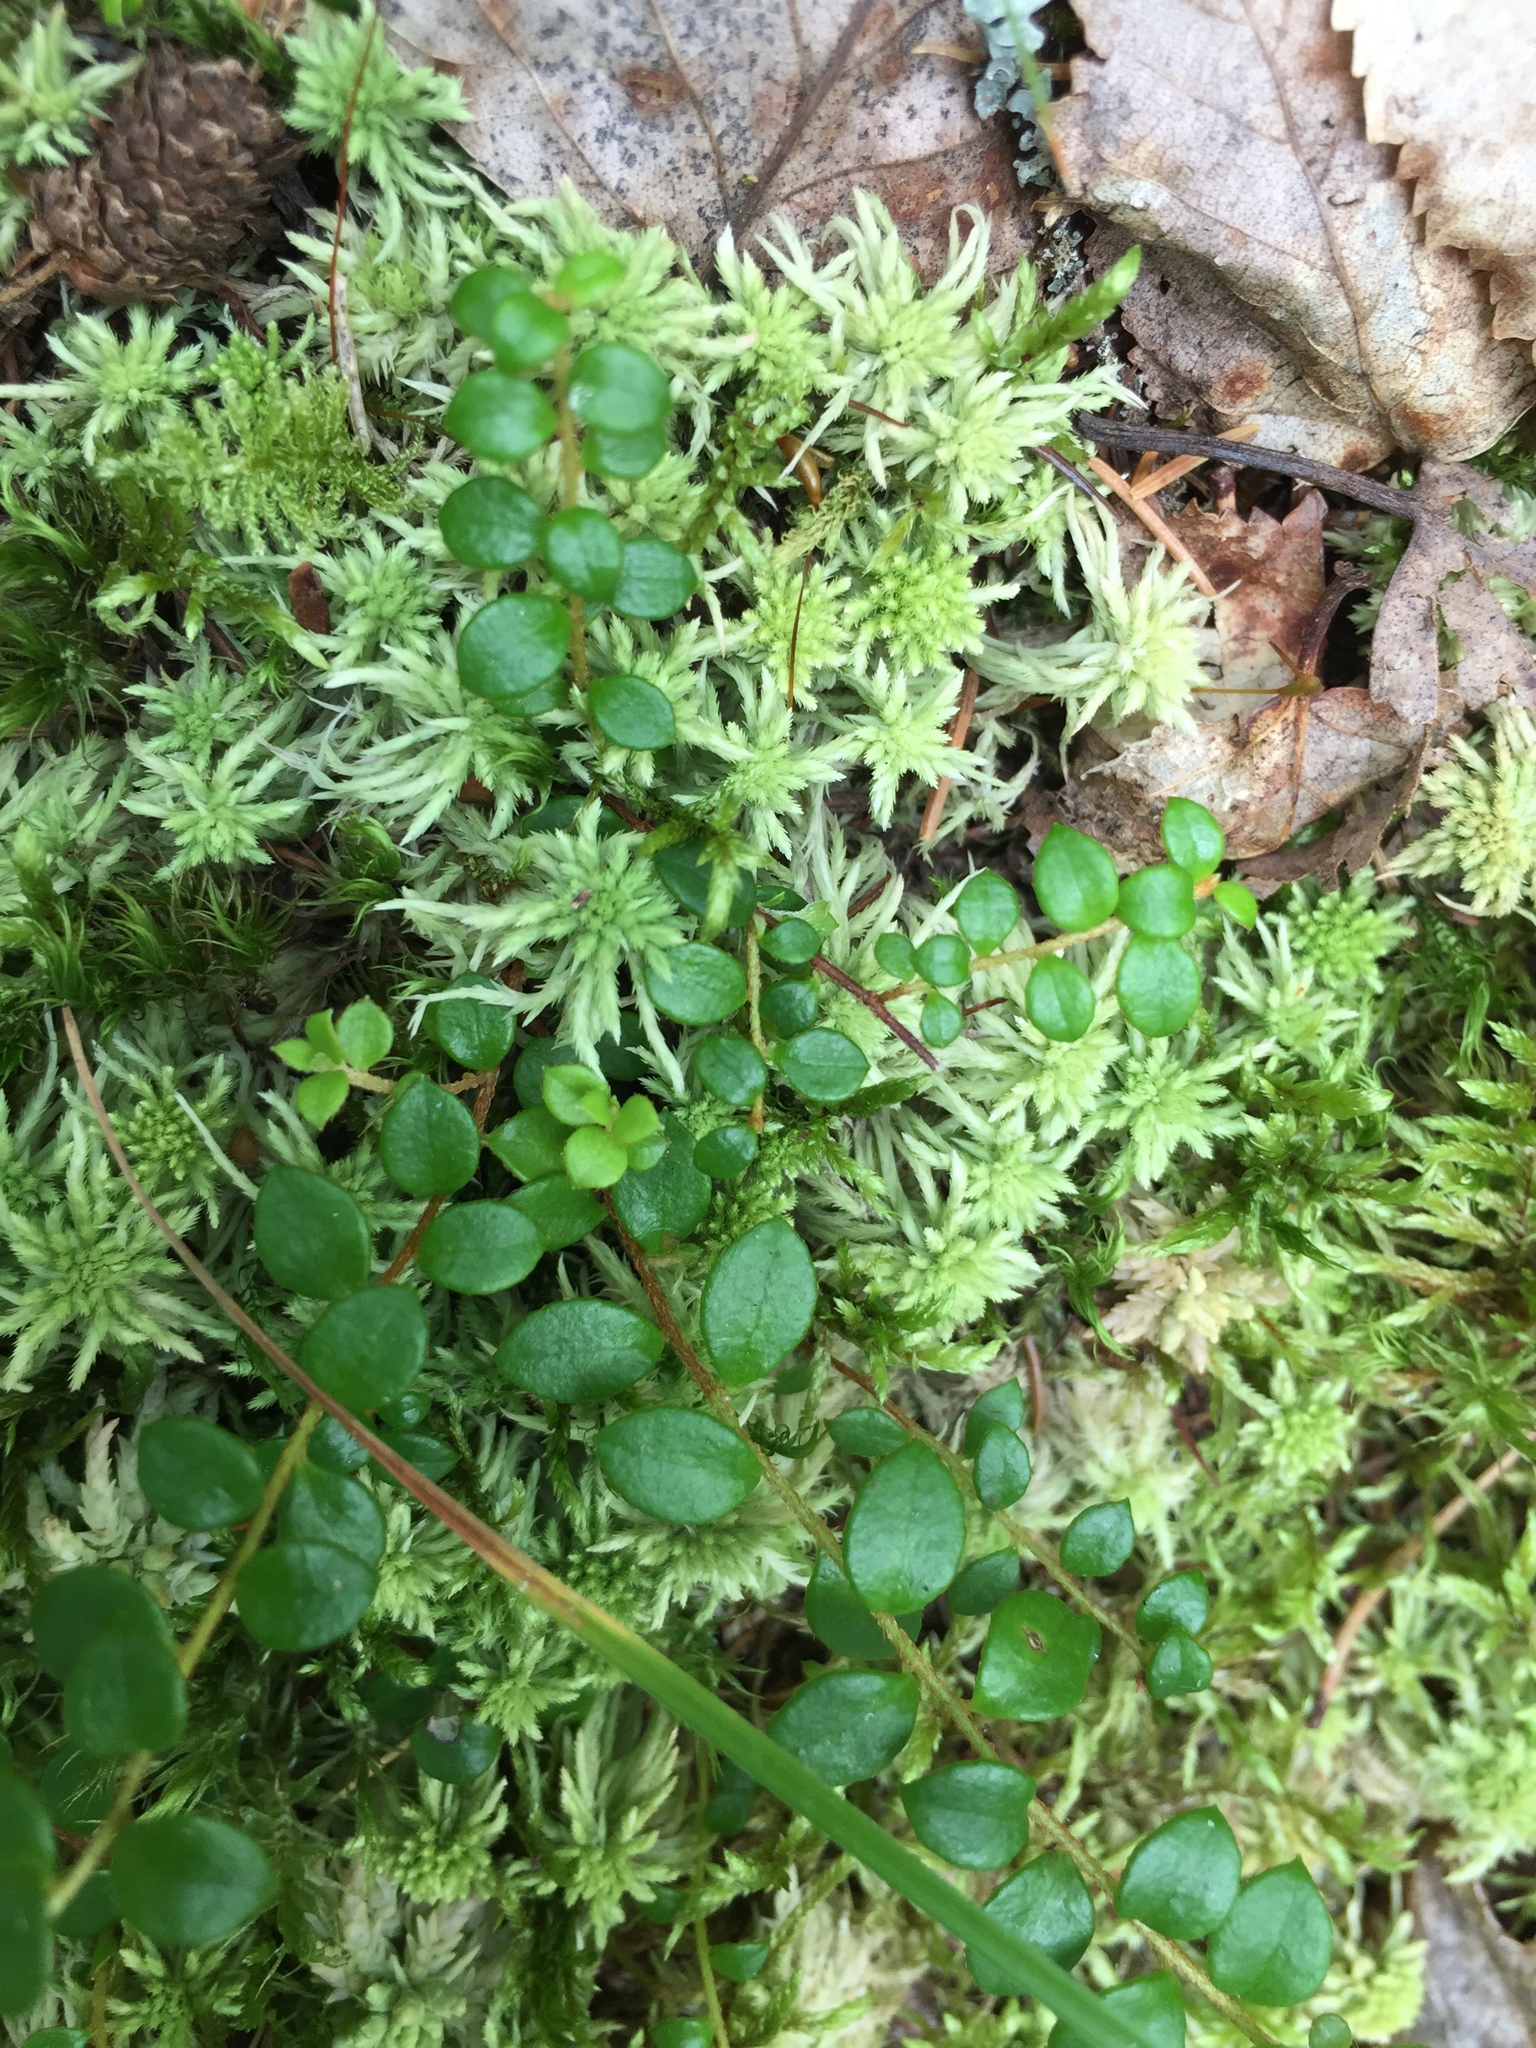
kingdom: Plantae
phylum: Tracheophyta
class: Magnoliopsida
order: Ericales
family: Ericaceae
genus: Gaultheria
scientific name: Gaultheria hispidula
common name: Cancer wintergreen
